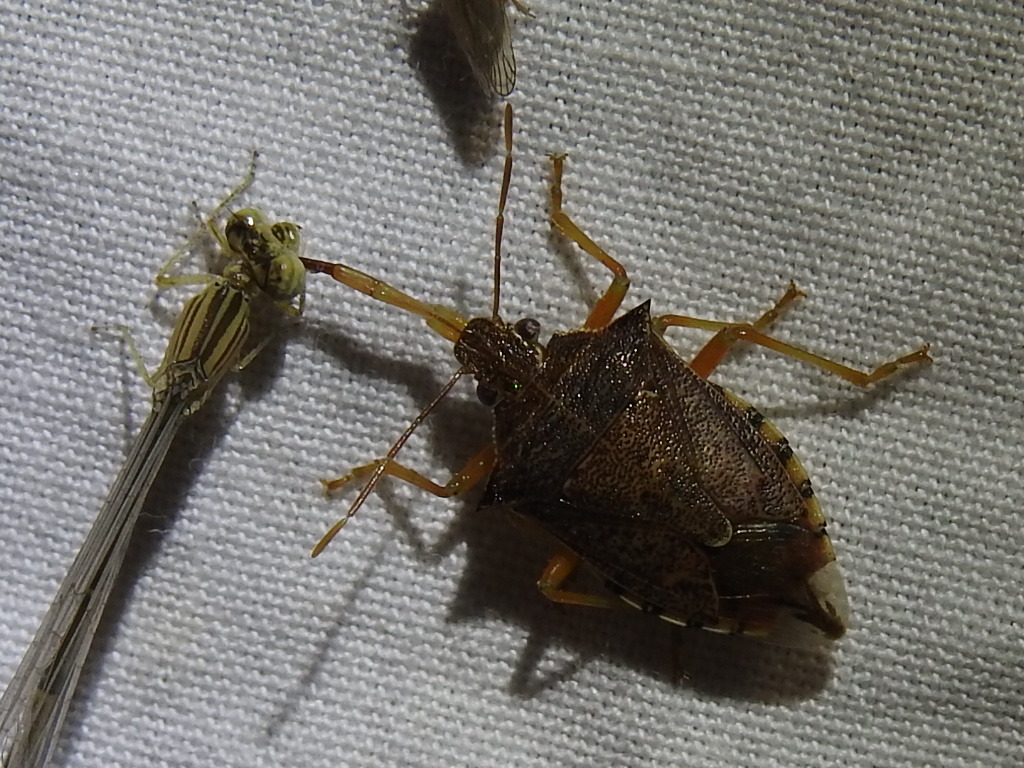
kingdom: Animalia
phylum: Arthropoda
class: Insecta
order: Hemiptera
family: Pentatomidae
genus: Podisus
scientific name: Podisus maculiventris
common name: Spined soldier bug
